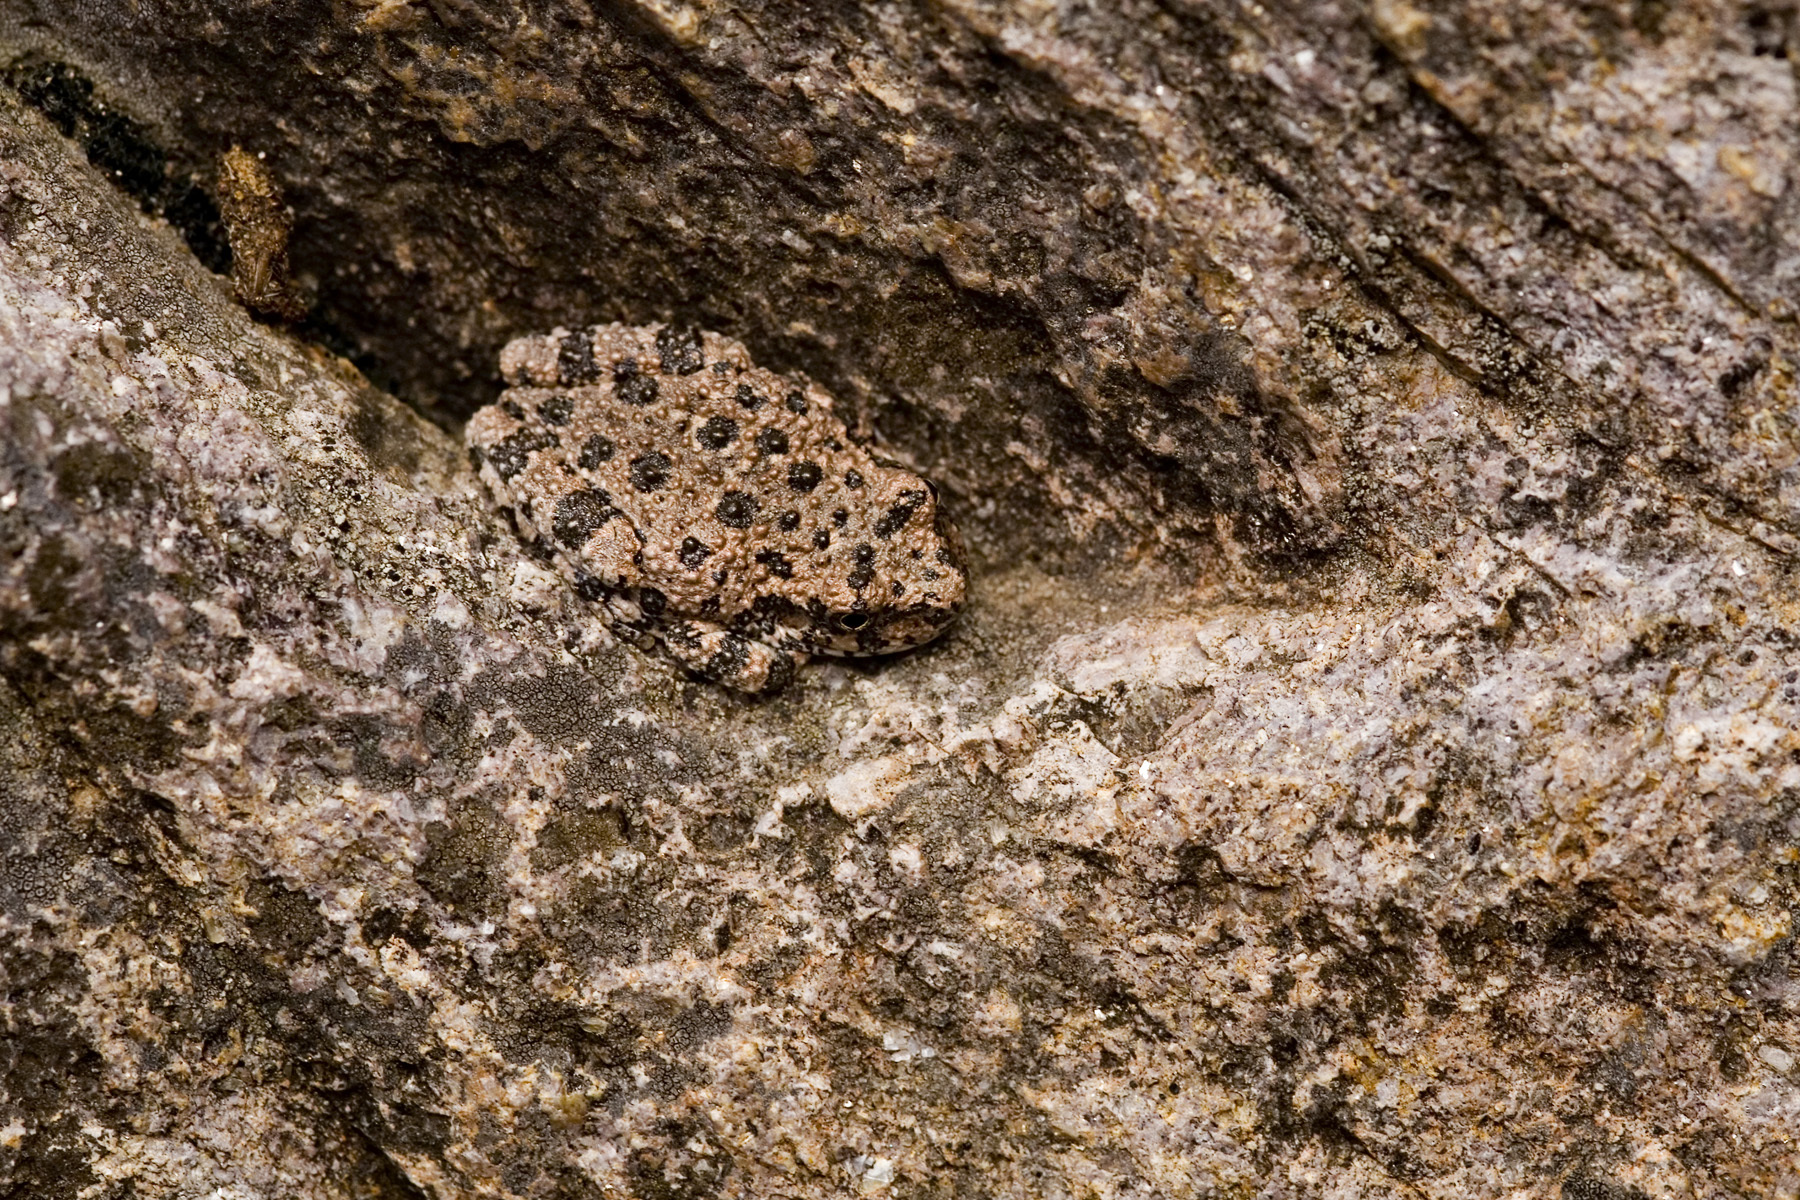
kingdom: Animalia
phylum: Chordata
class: Amphibia
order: Anura
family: Hylidae
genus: Dryophytes
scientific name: Dryophytes arenicolor
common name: Canyon treefrog
